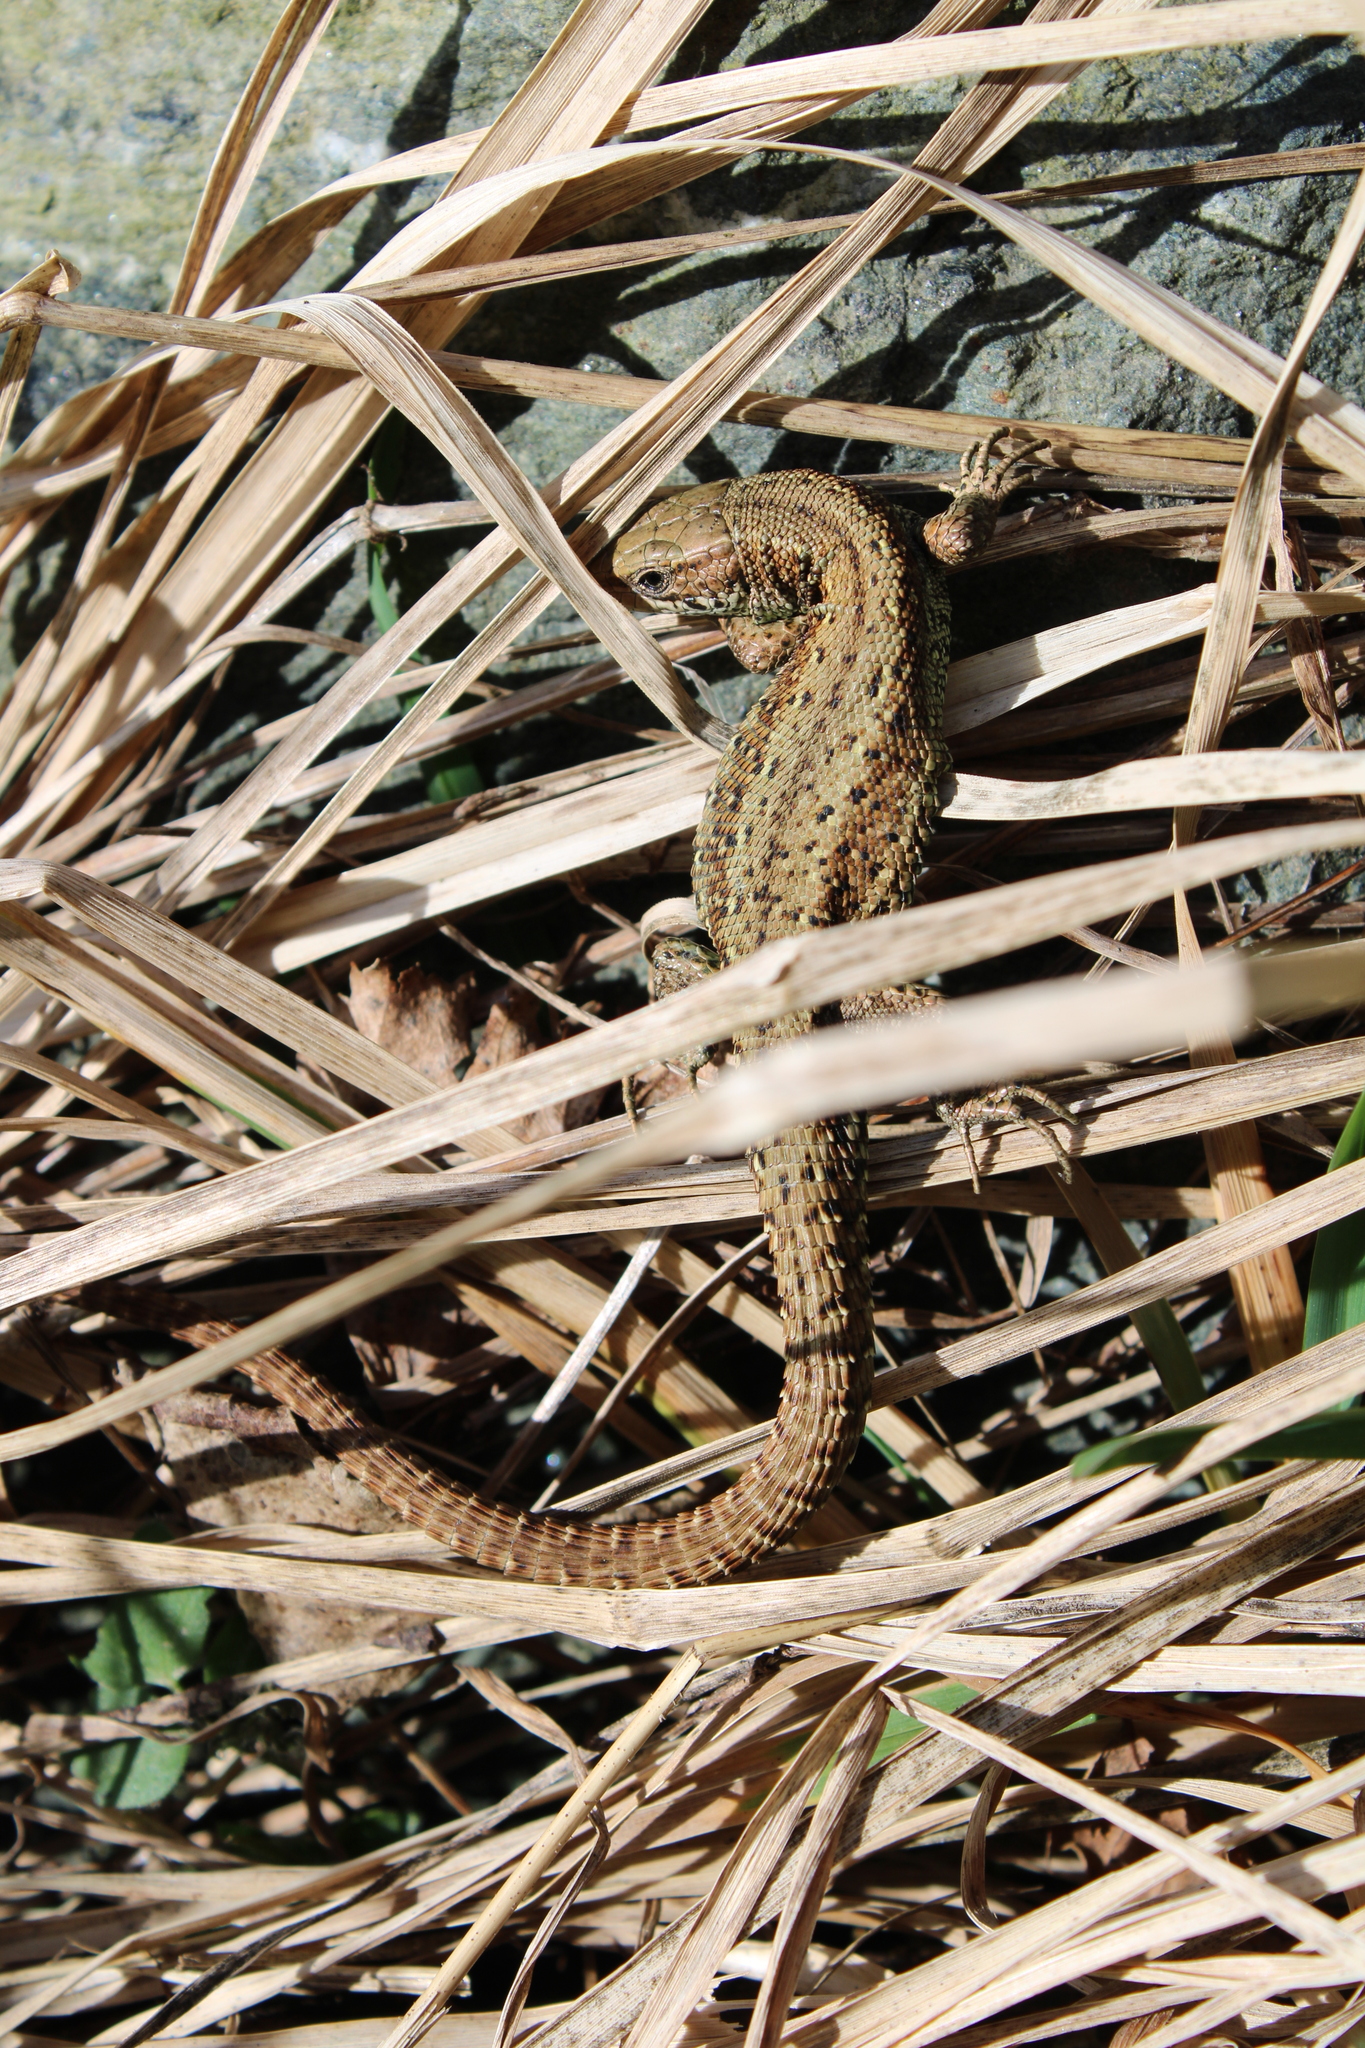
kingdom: Animalia
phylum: Chordata
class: Squamata
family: Lacertidae
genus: Zootoca
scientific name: Zootoca vivipara
